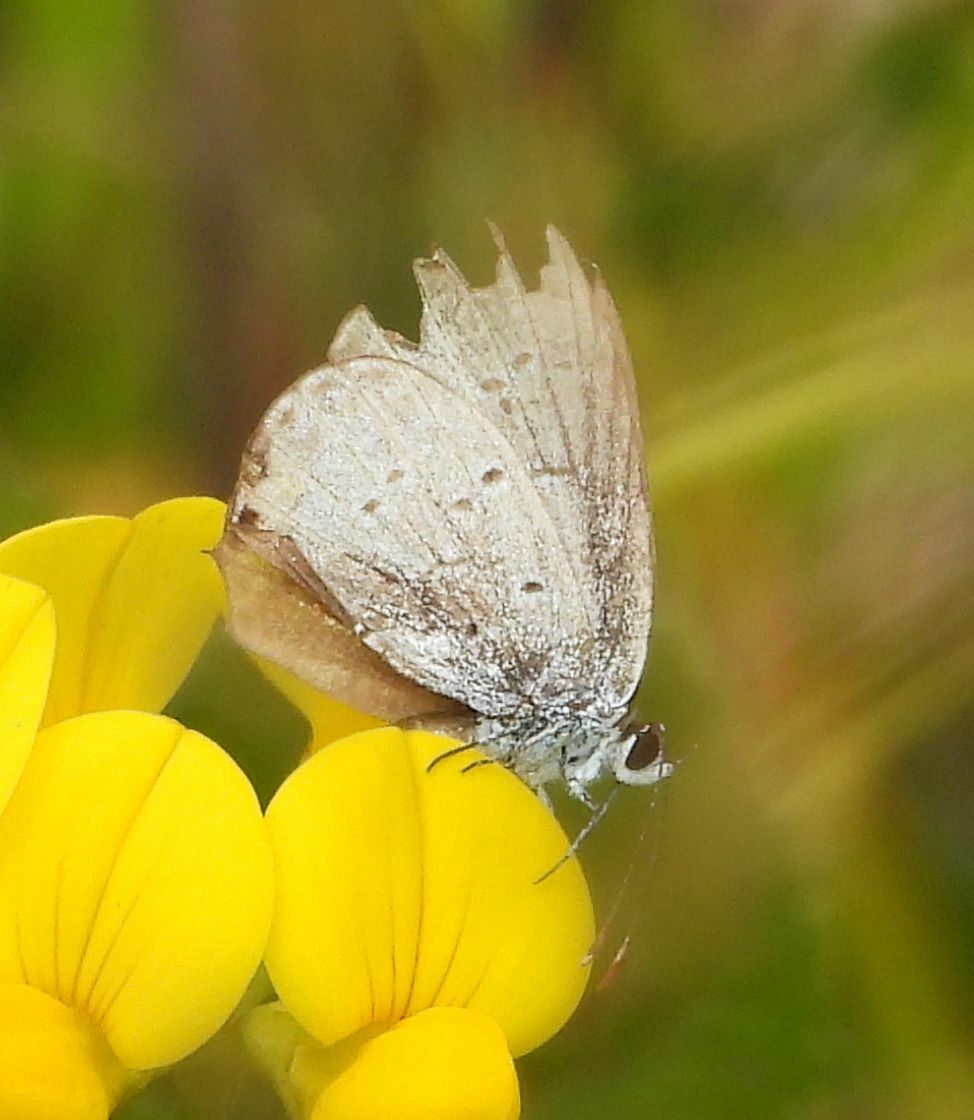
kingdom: Animalia
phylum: Arthropoda
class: Insecta
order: Lepidoptera
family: Lycaenidae
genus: Elkalyce
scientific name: Elkalyce comyntas
